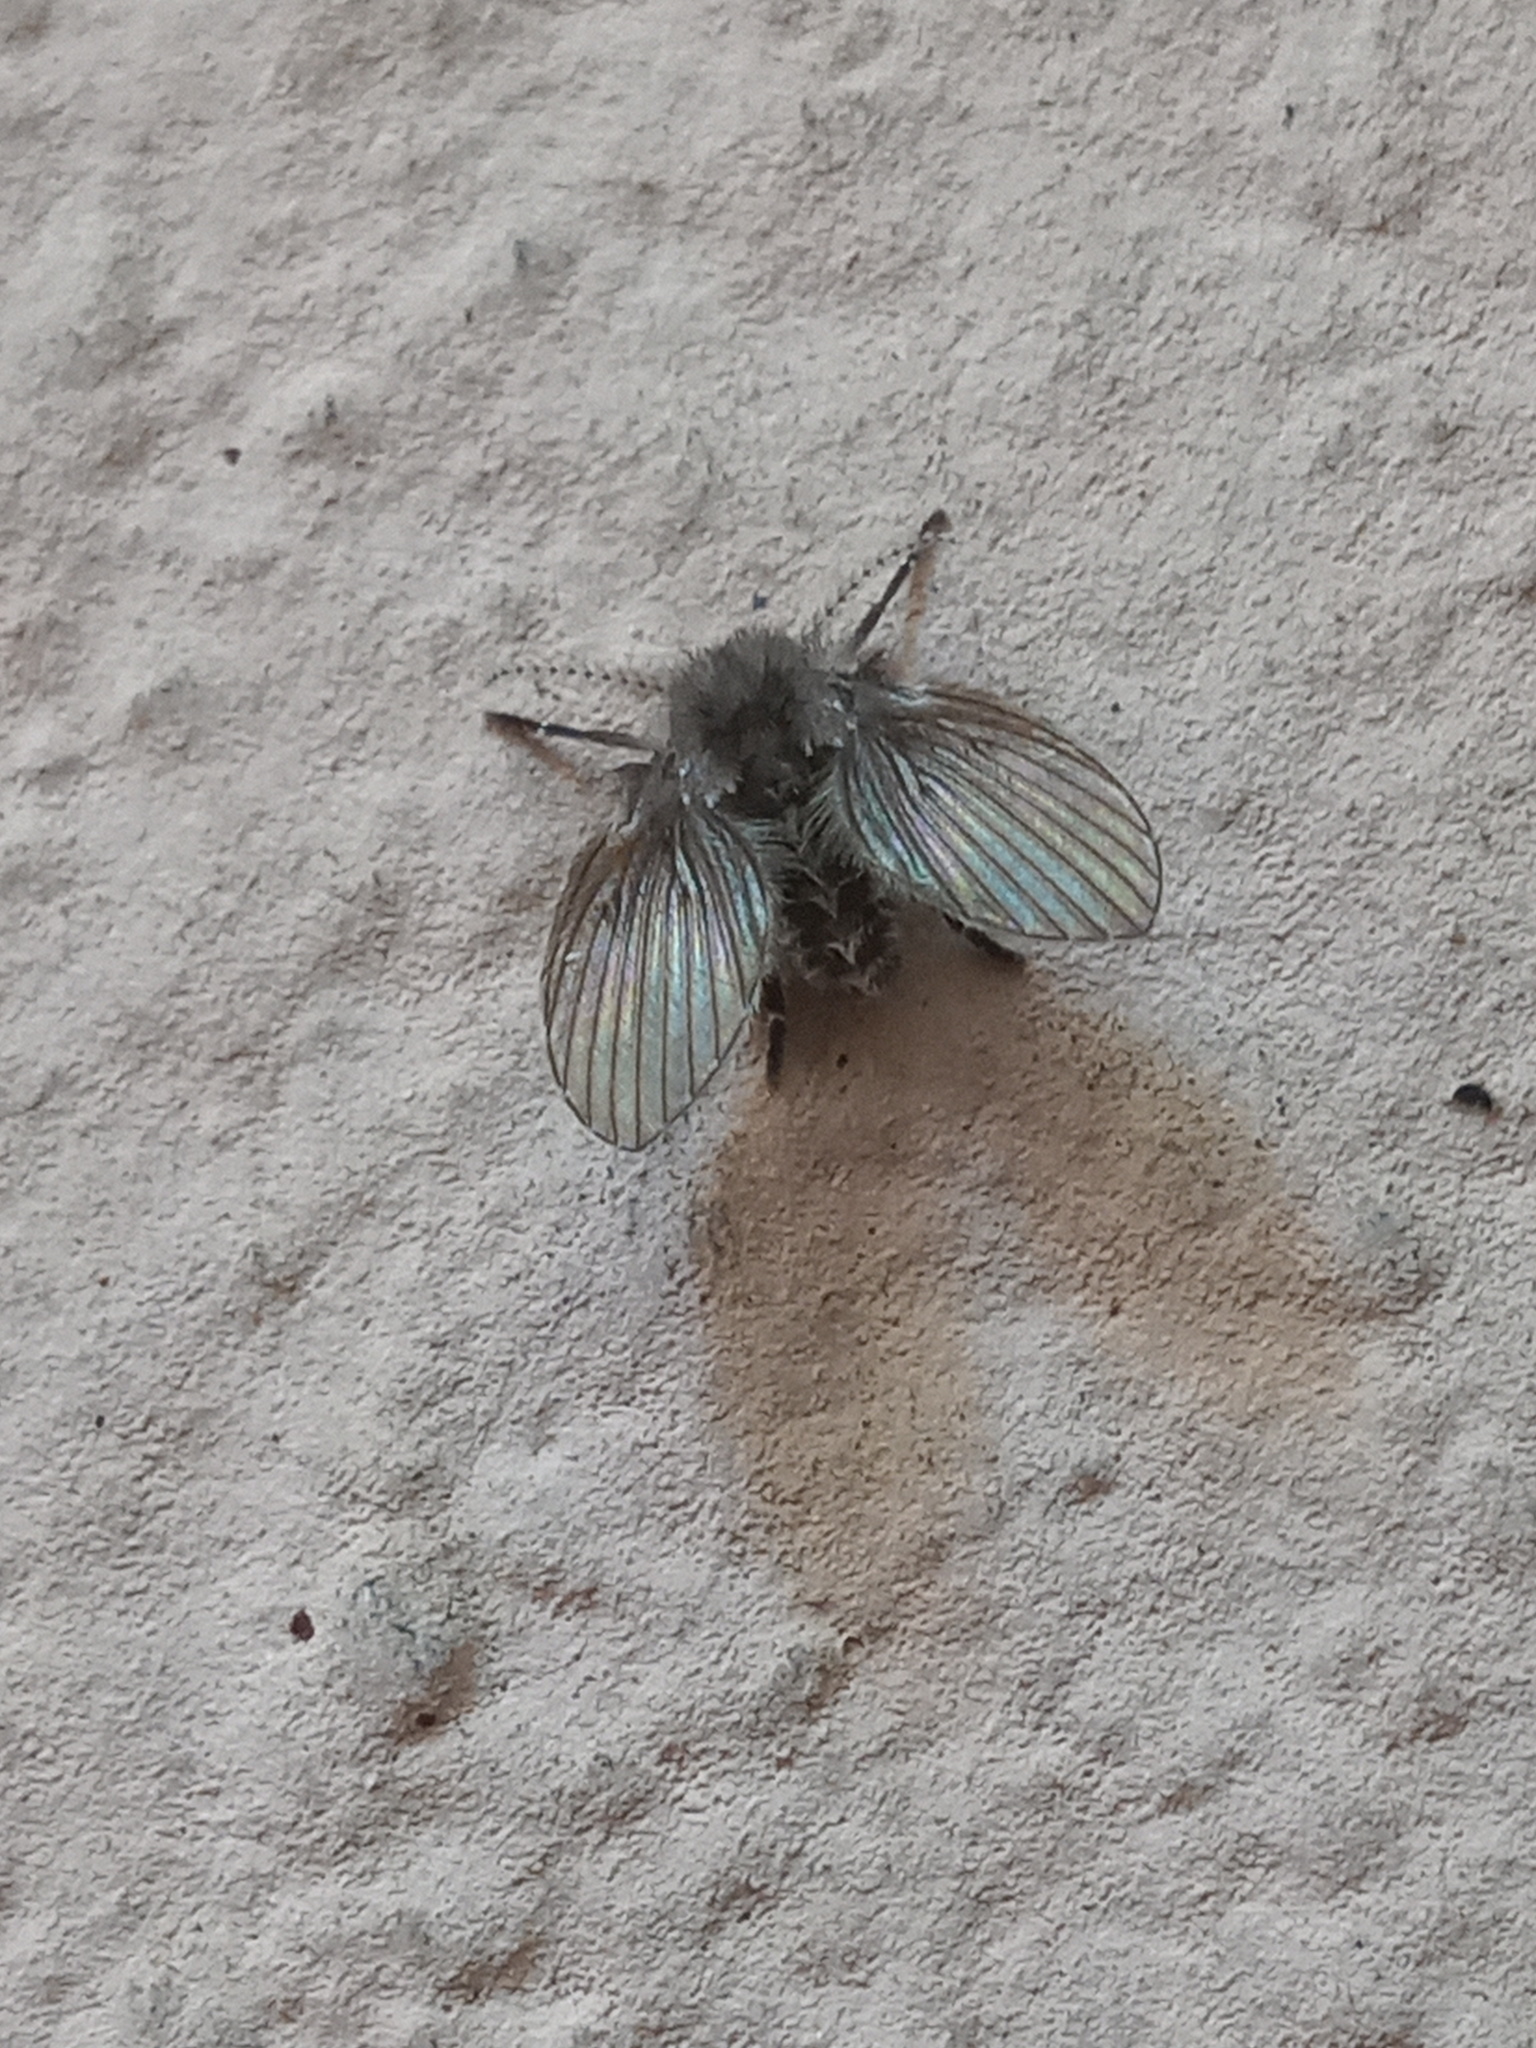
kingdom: Animalia
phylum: Arthropoda
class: Insecta
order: Diptera
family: Psychodidae
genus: Clogmia
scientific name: Clogmia albipunctatus
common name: White-spotted moth fly
